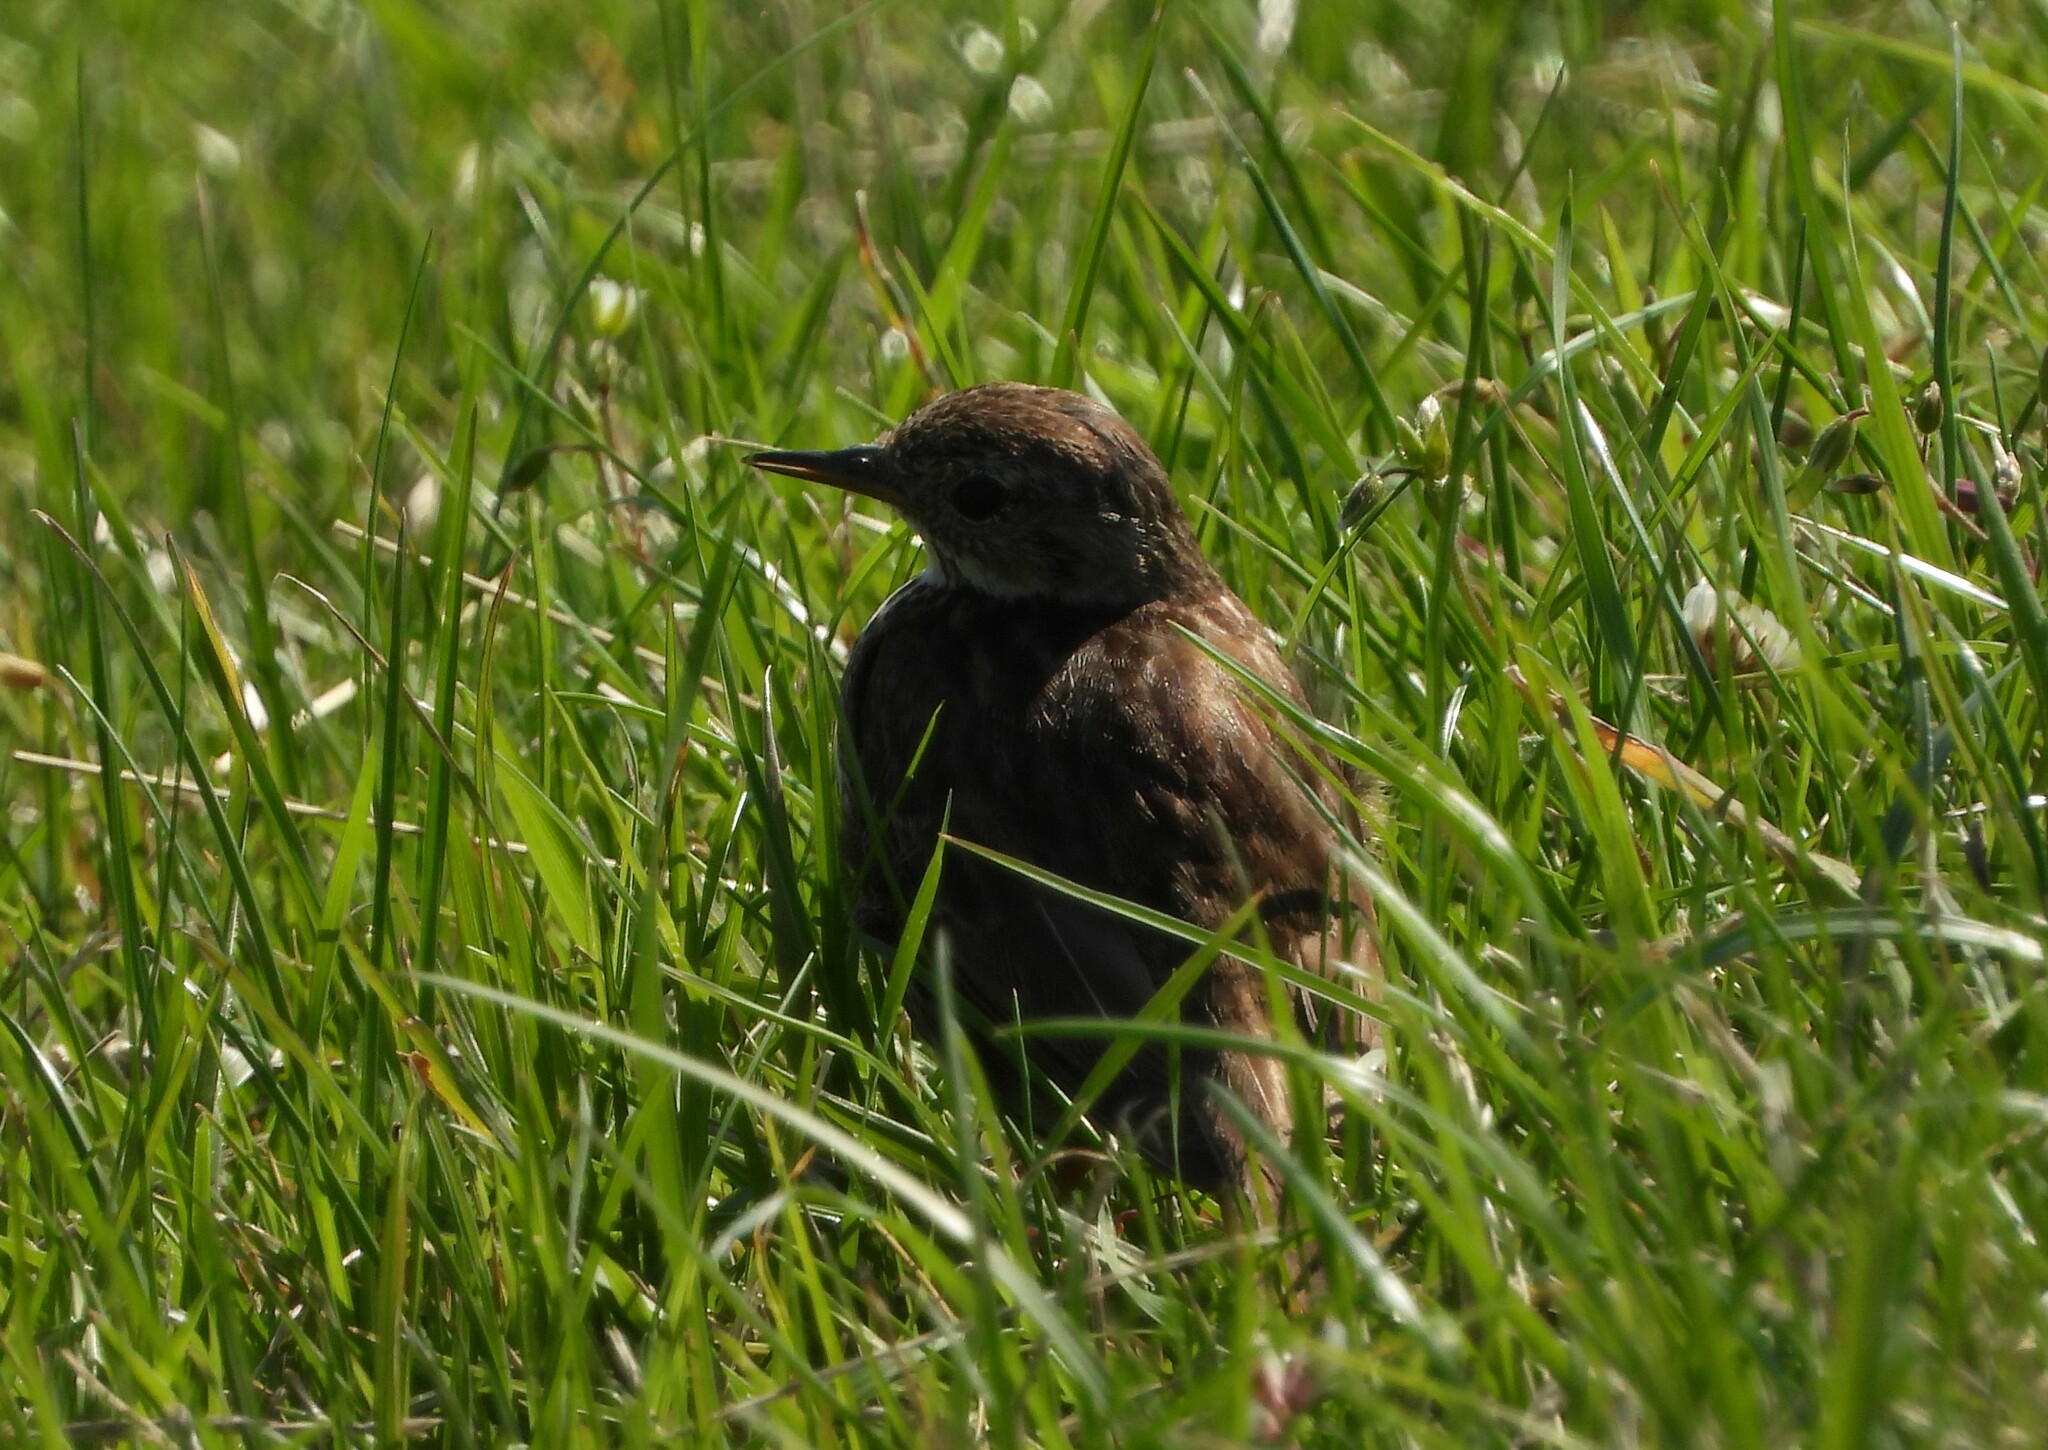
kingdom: Animalia
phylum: Chordata
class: Aves
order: Passeriformes
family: Motacillidae
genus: Anthus
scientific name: Anthus pratensis
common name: Meadow pipit
